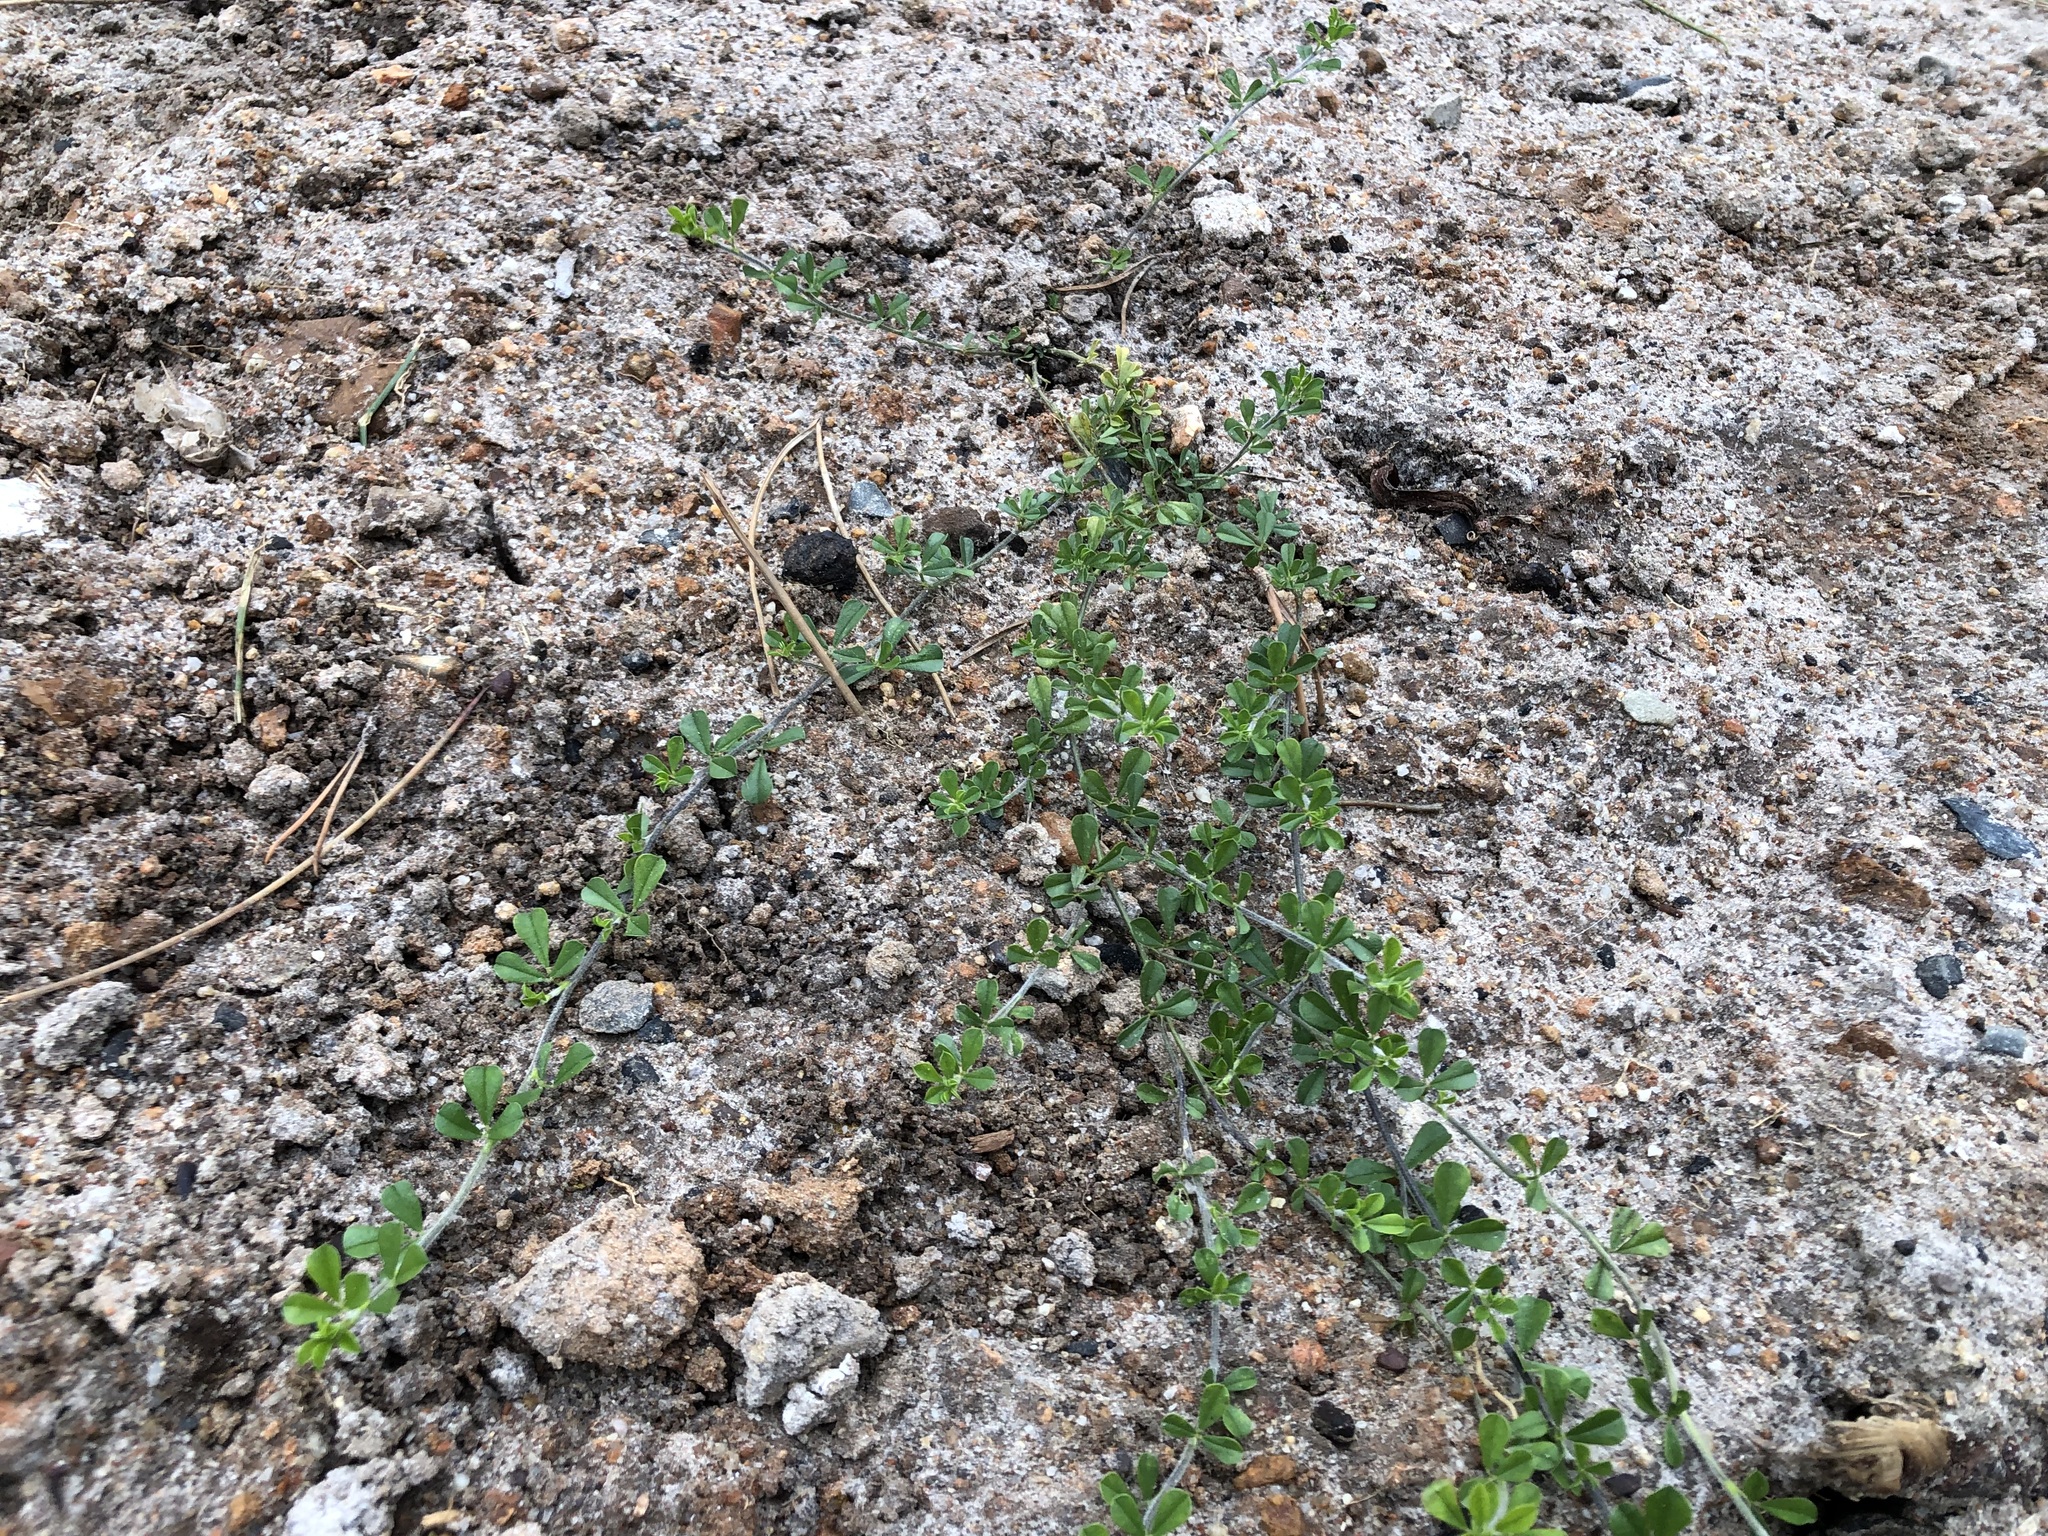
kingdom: Plantae
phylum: Tracheophyta
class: Magnoliopsida
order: Fabales
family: Fabaceae
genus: Psoralea
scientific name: Psoralea
